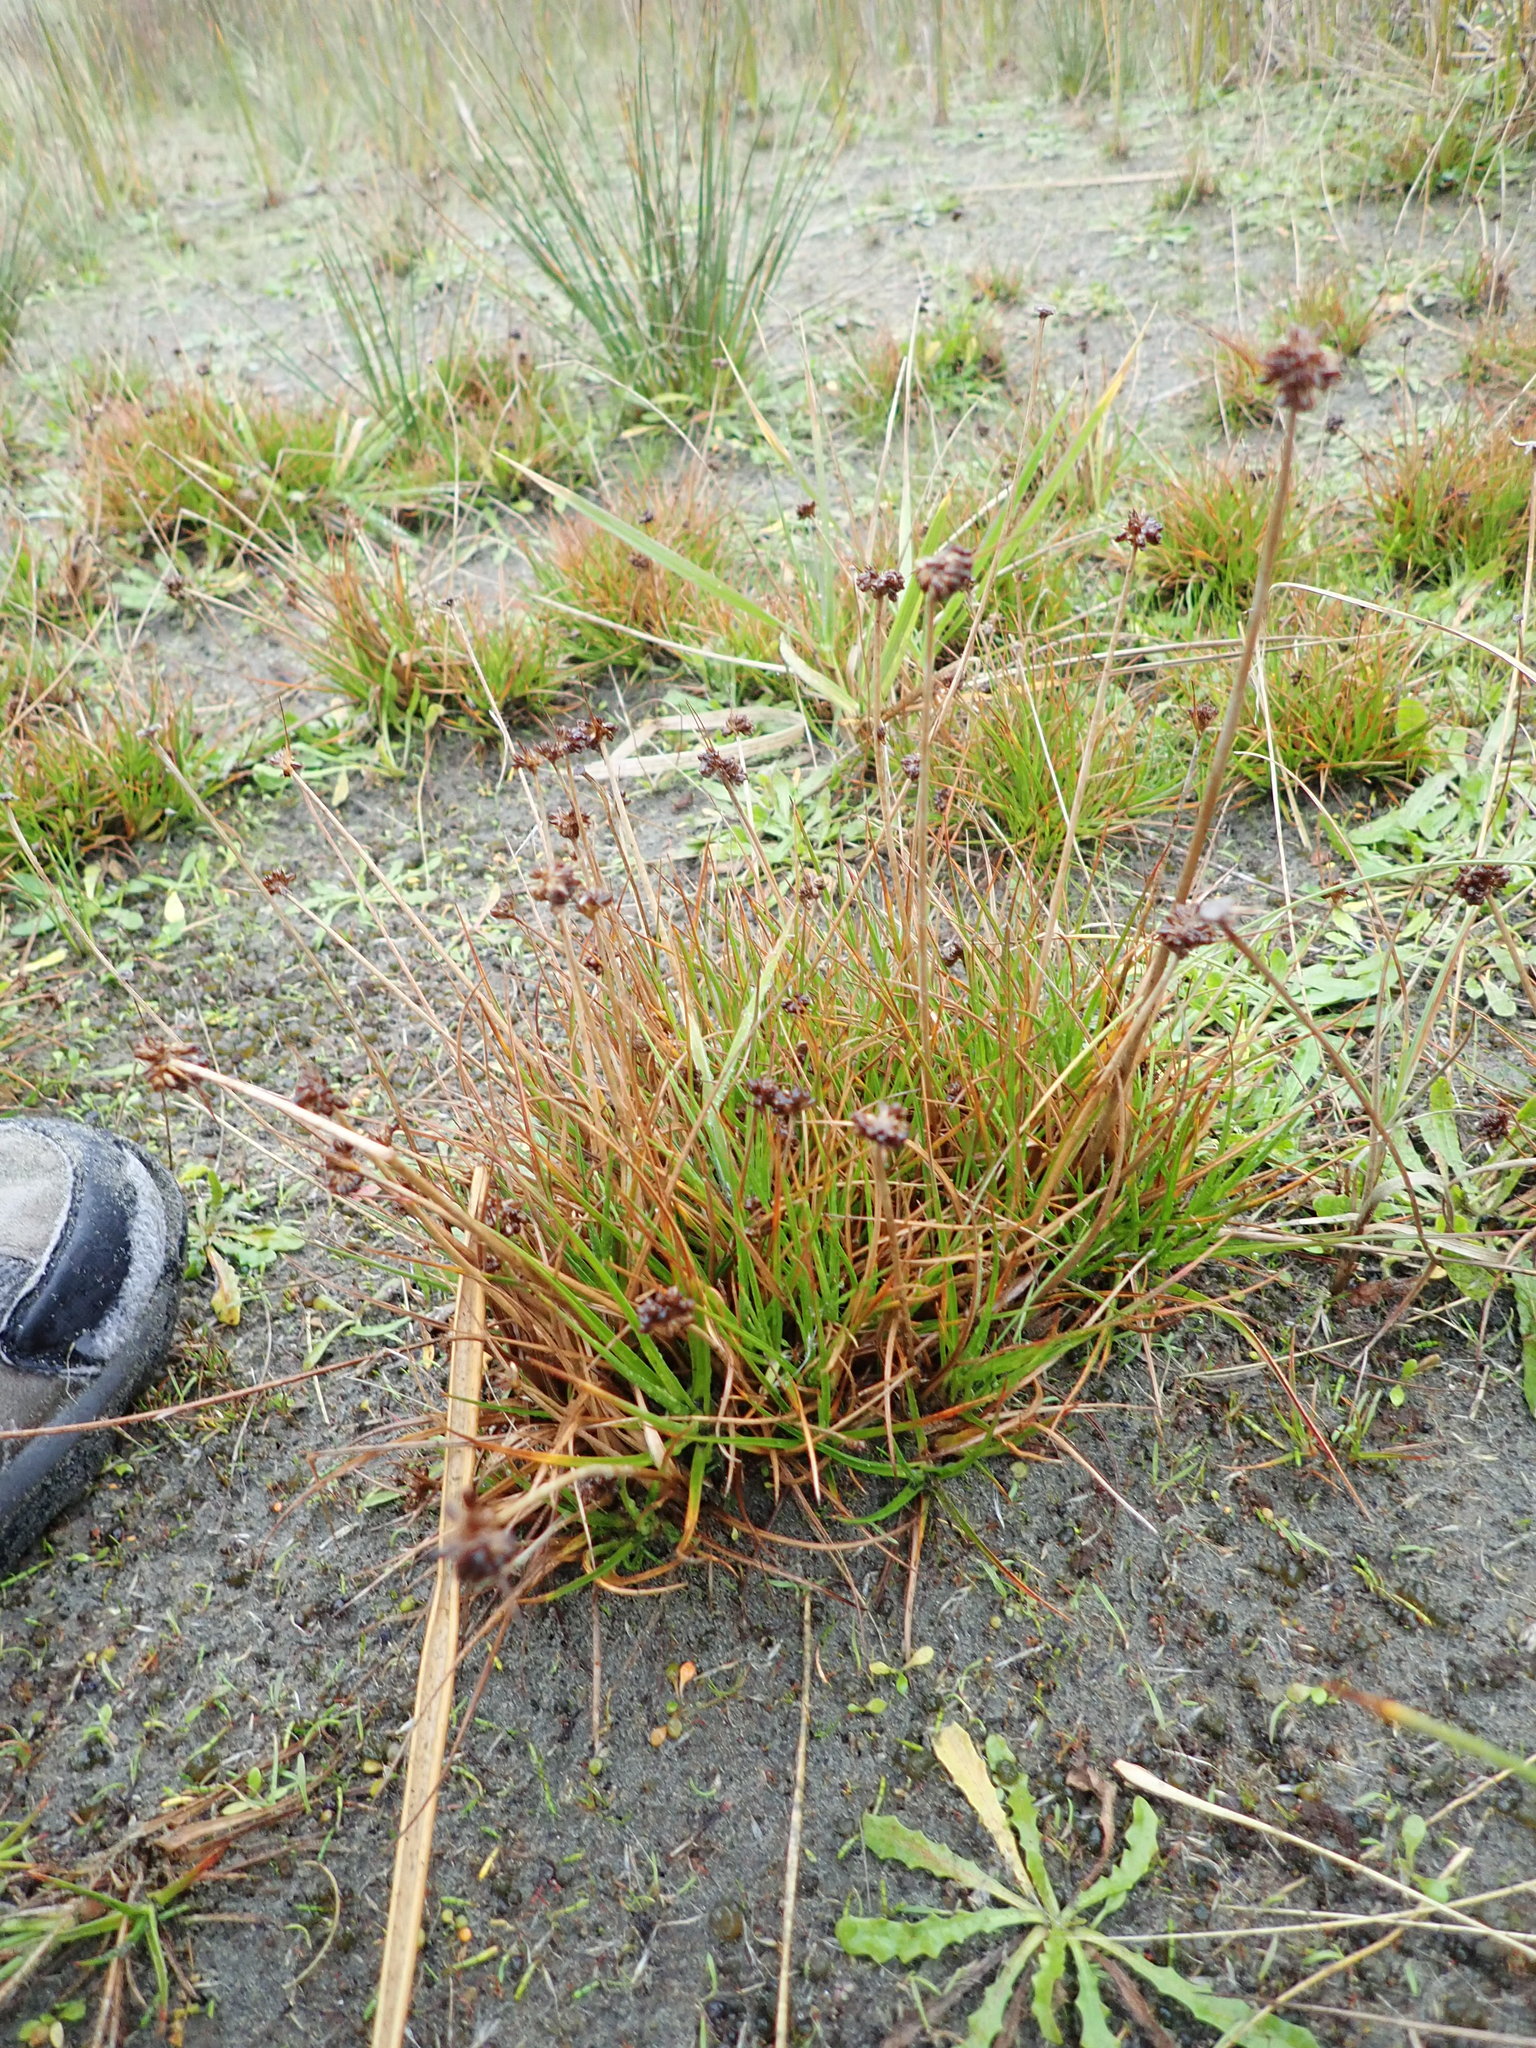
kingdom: Plantae
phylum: Tracheophyta
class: Liliopsida
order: Poales
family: Juncaceae
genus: Juncus
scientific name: Juncus caespiticius
